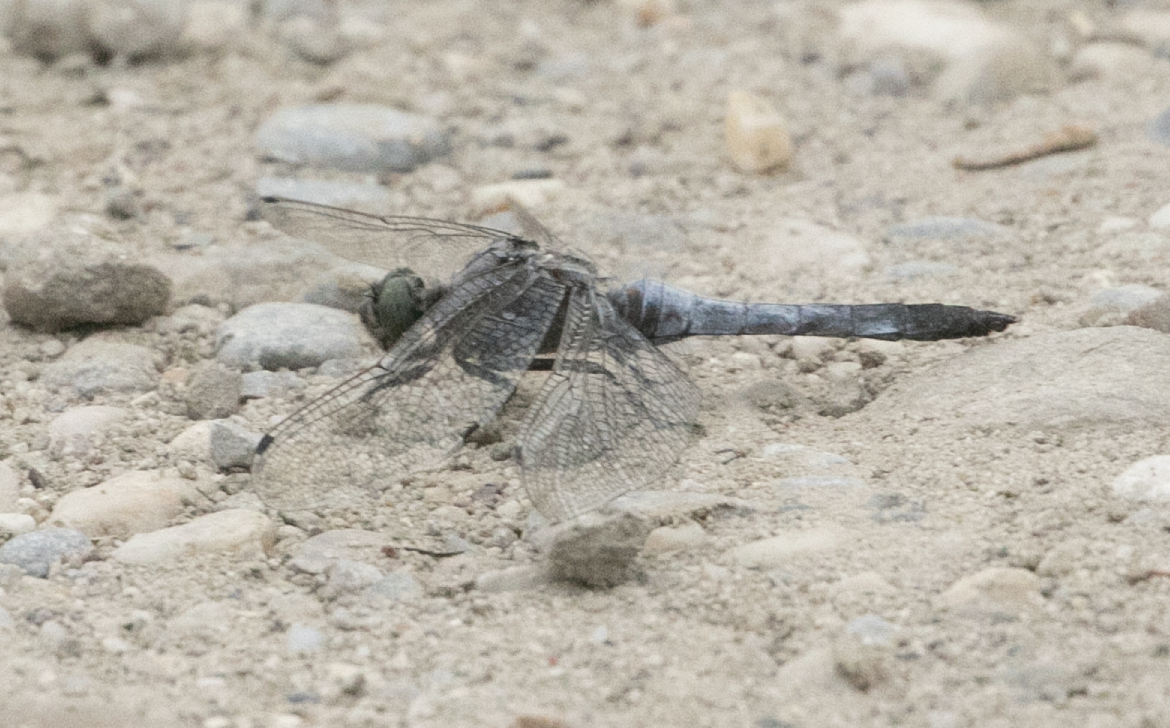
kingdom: Animalia
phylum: Arthropoda
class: Insecta
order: Odonata
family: Libellulidae
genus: Orthetrum
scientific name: Orthetrum cancellatum
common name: Black-tailed skimmer
